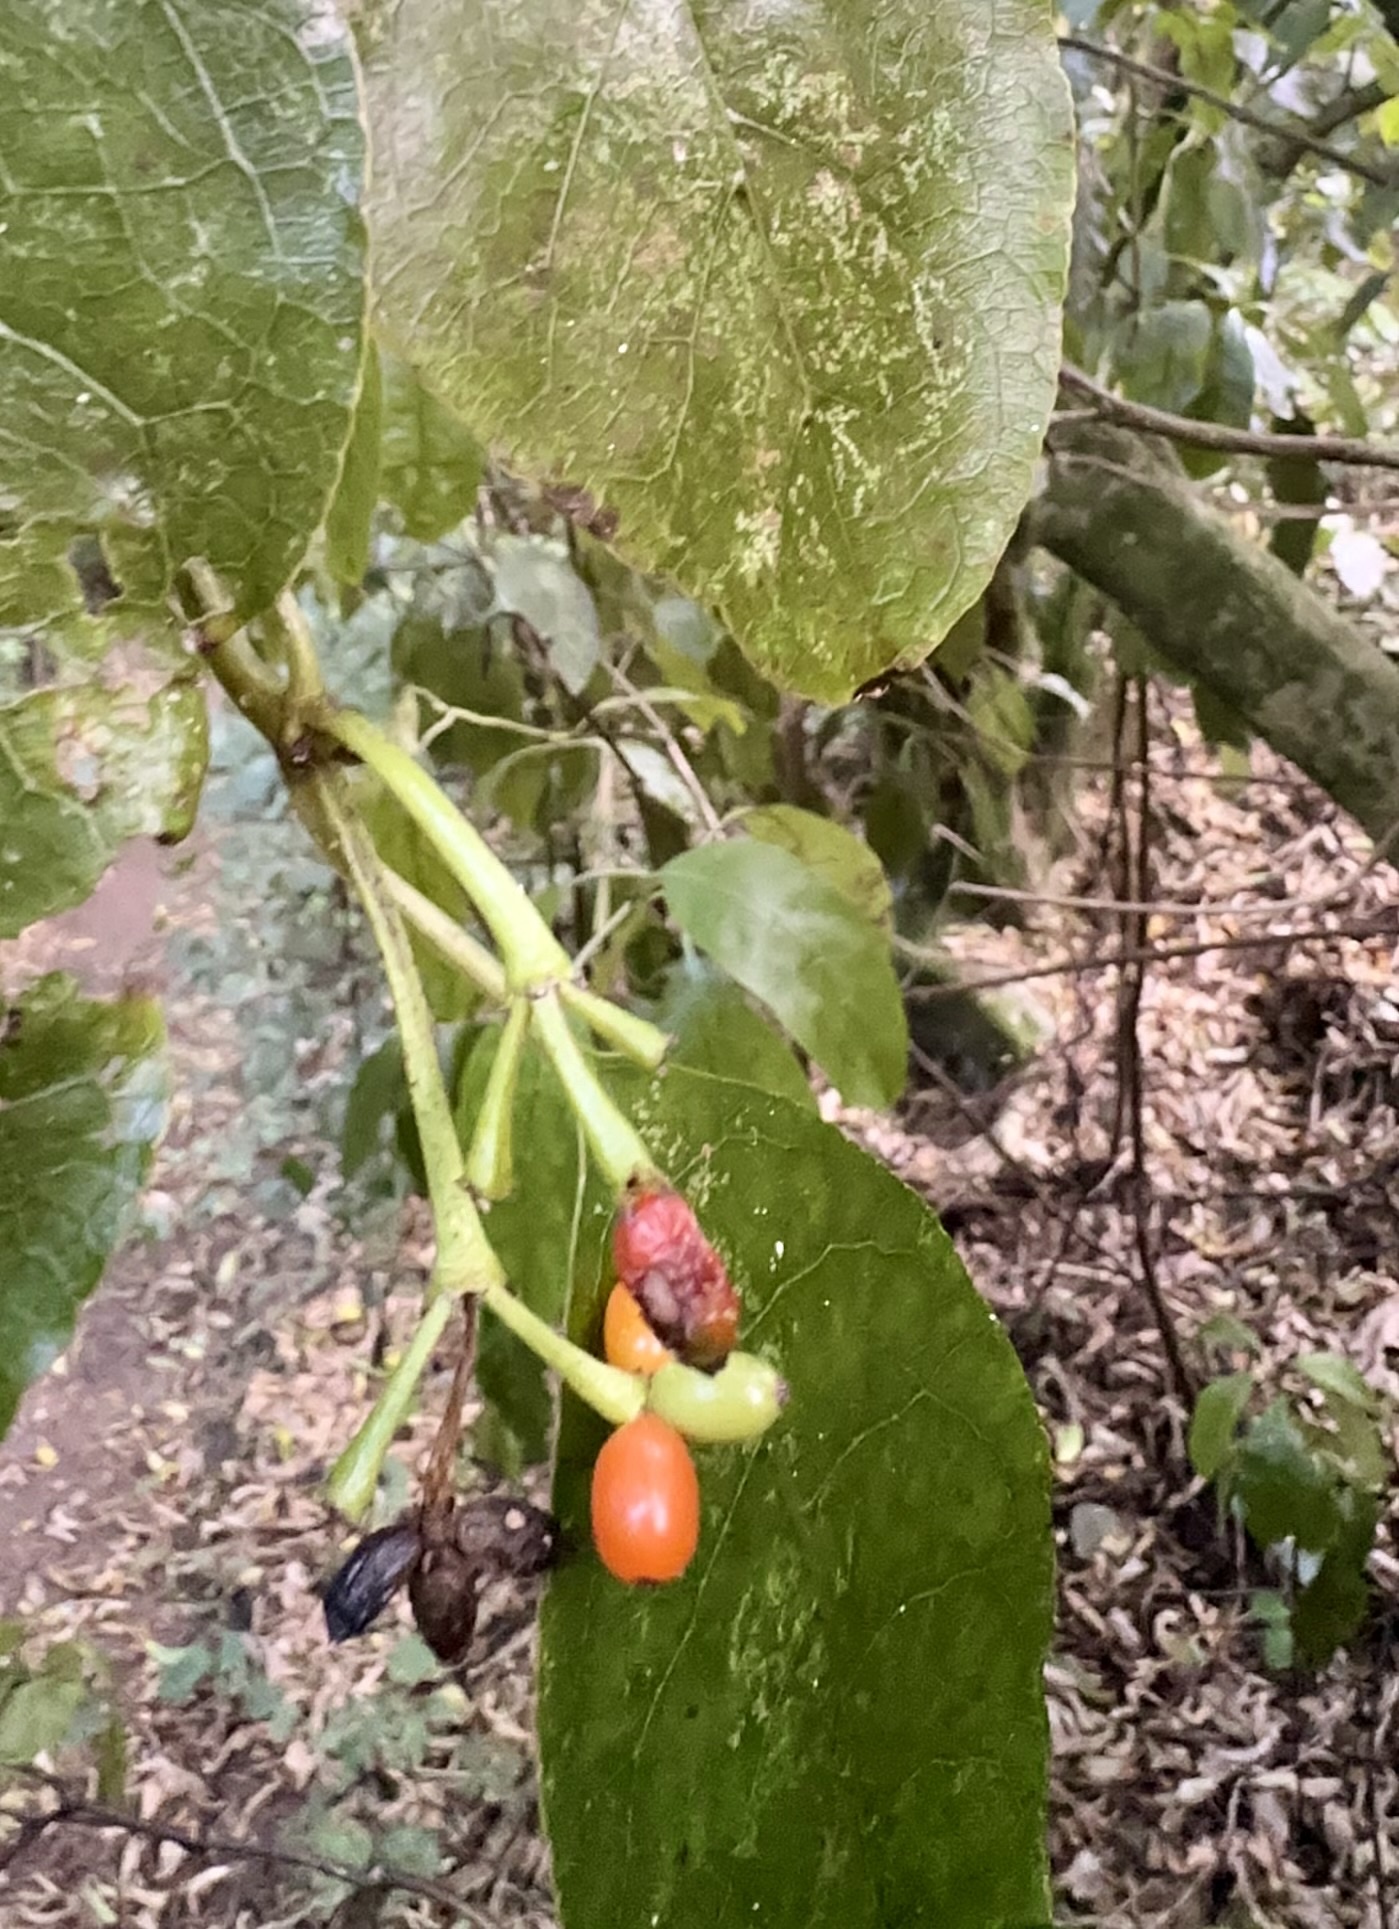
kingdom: Plantae
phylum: Tracheophyta
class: Magnoliopsida
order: Gentianales
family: Rubiaceae
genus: Coprosma
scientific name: Coprosma autumnalis
